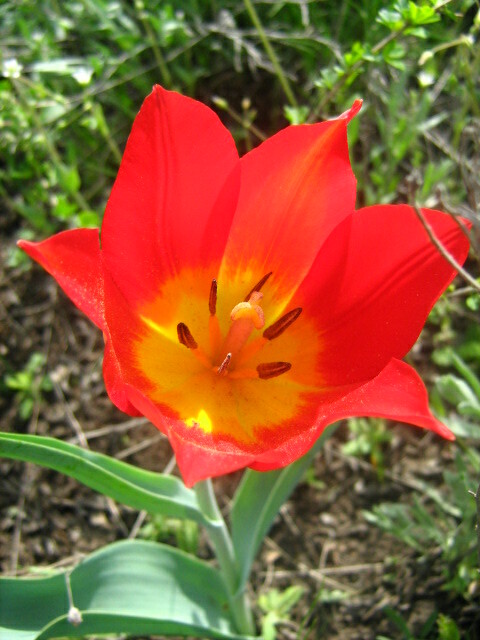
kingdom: Plantae
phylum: Tracheophyta
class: Liliopsida
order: Liliales
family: Liliaceae
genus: Tulipa
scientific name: Tulipa suaveolens
